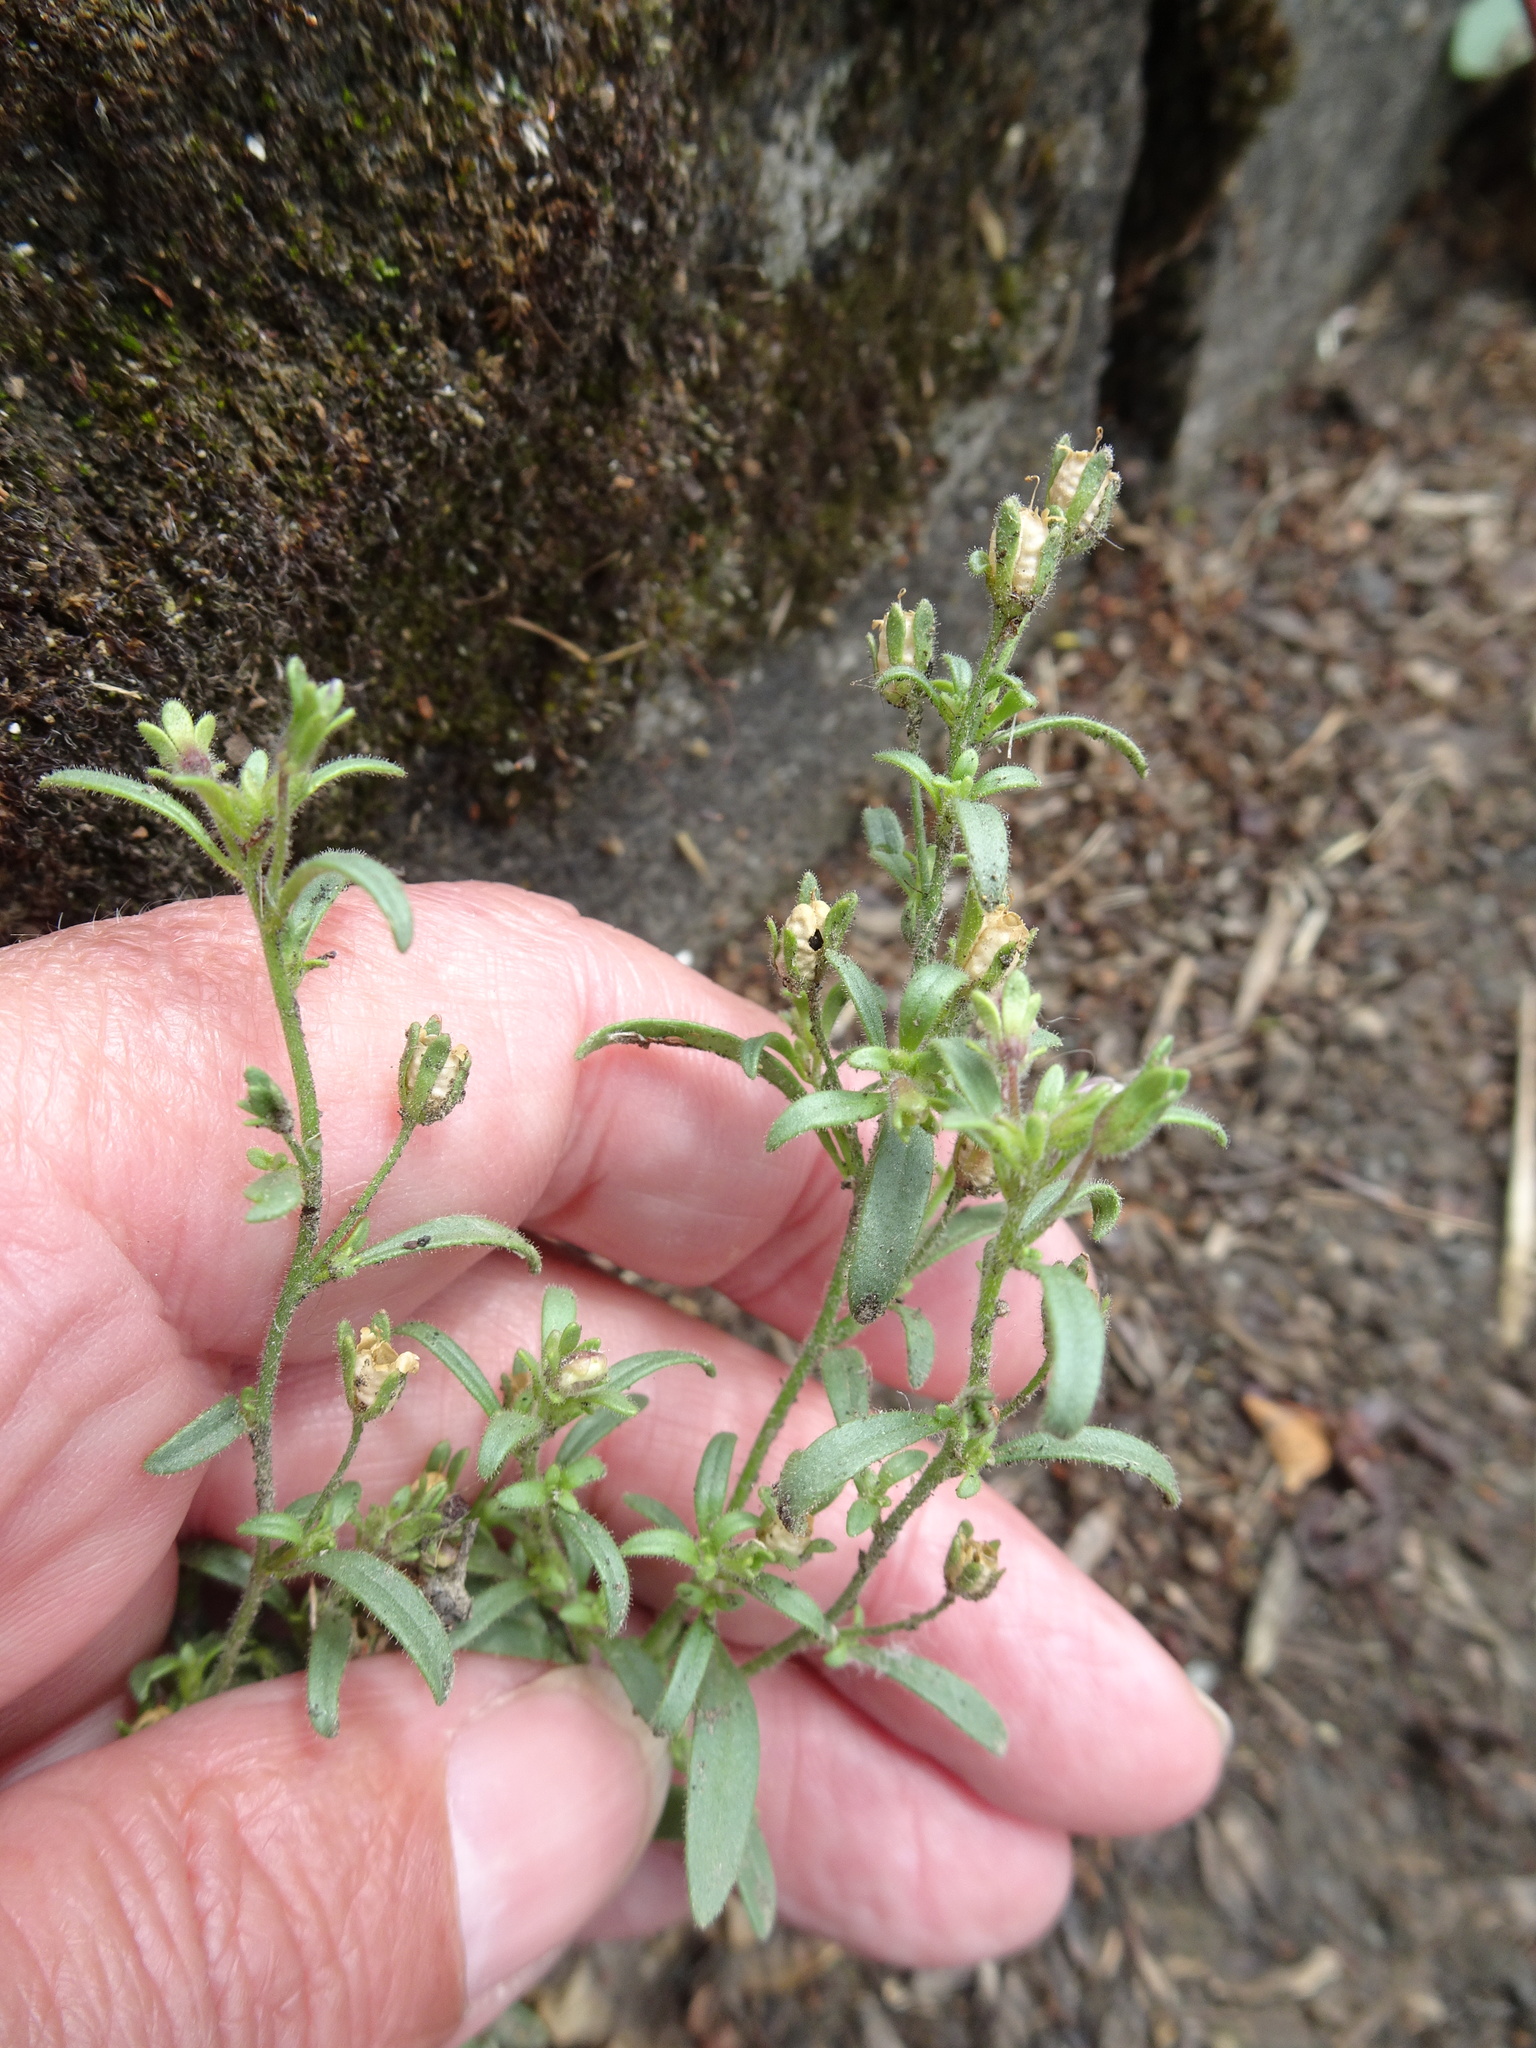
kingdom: Plantae
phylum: Tracheophyta
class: Magnoliopsida
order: Lamiales
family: Plantaginaceae
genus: Chaenorhinum
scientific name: Chaenorhinum minus
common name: Dwarf snapdragon
